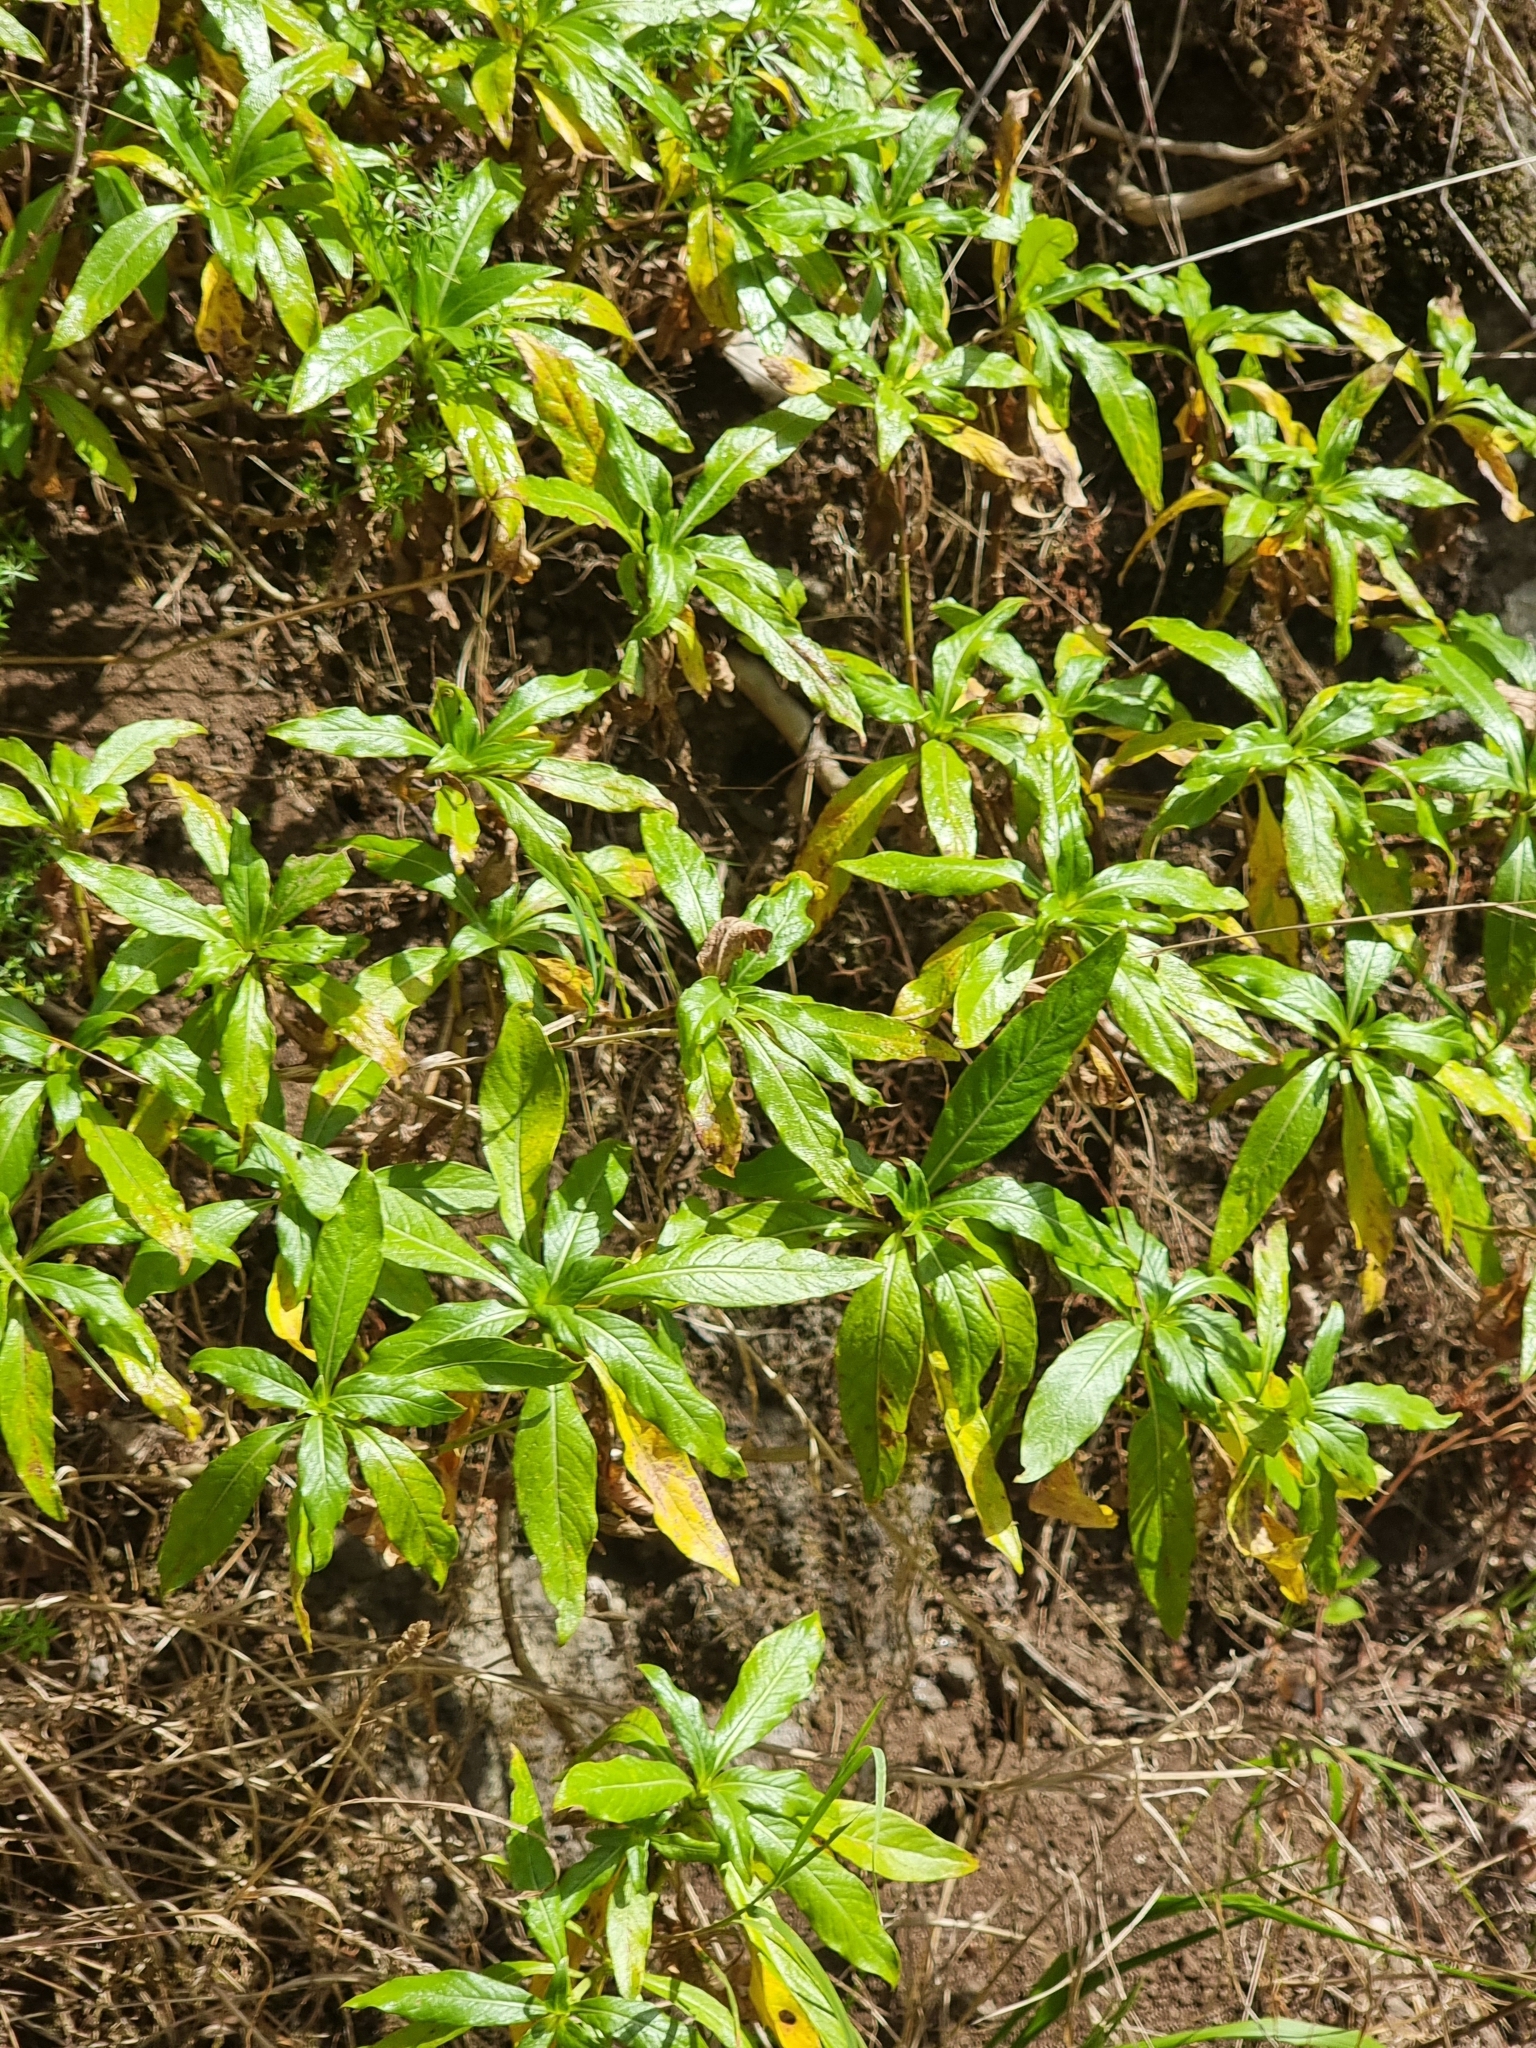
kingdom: Plantae
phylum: Tracheophyta
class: Magnoliopsida
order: Gentianales
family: Rubiaceae
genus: Phyllis
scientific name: Phyllis nobla
